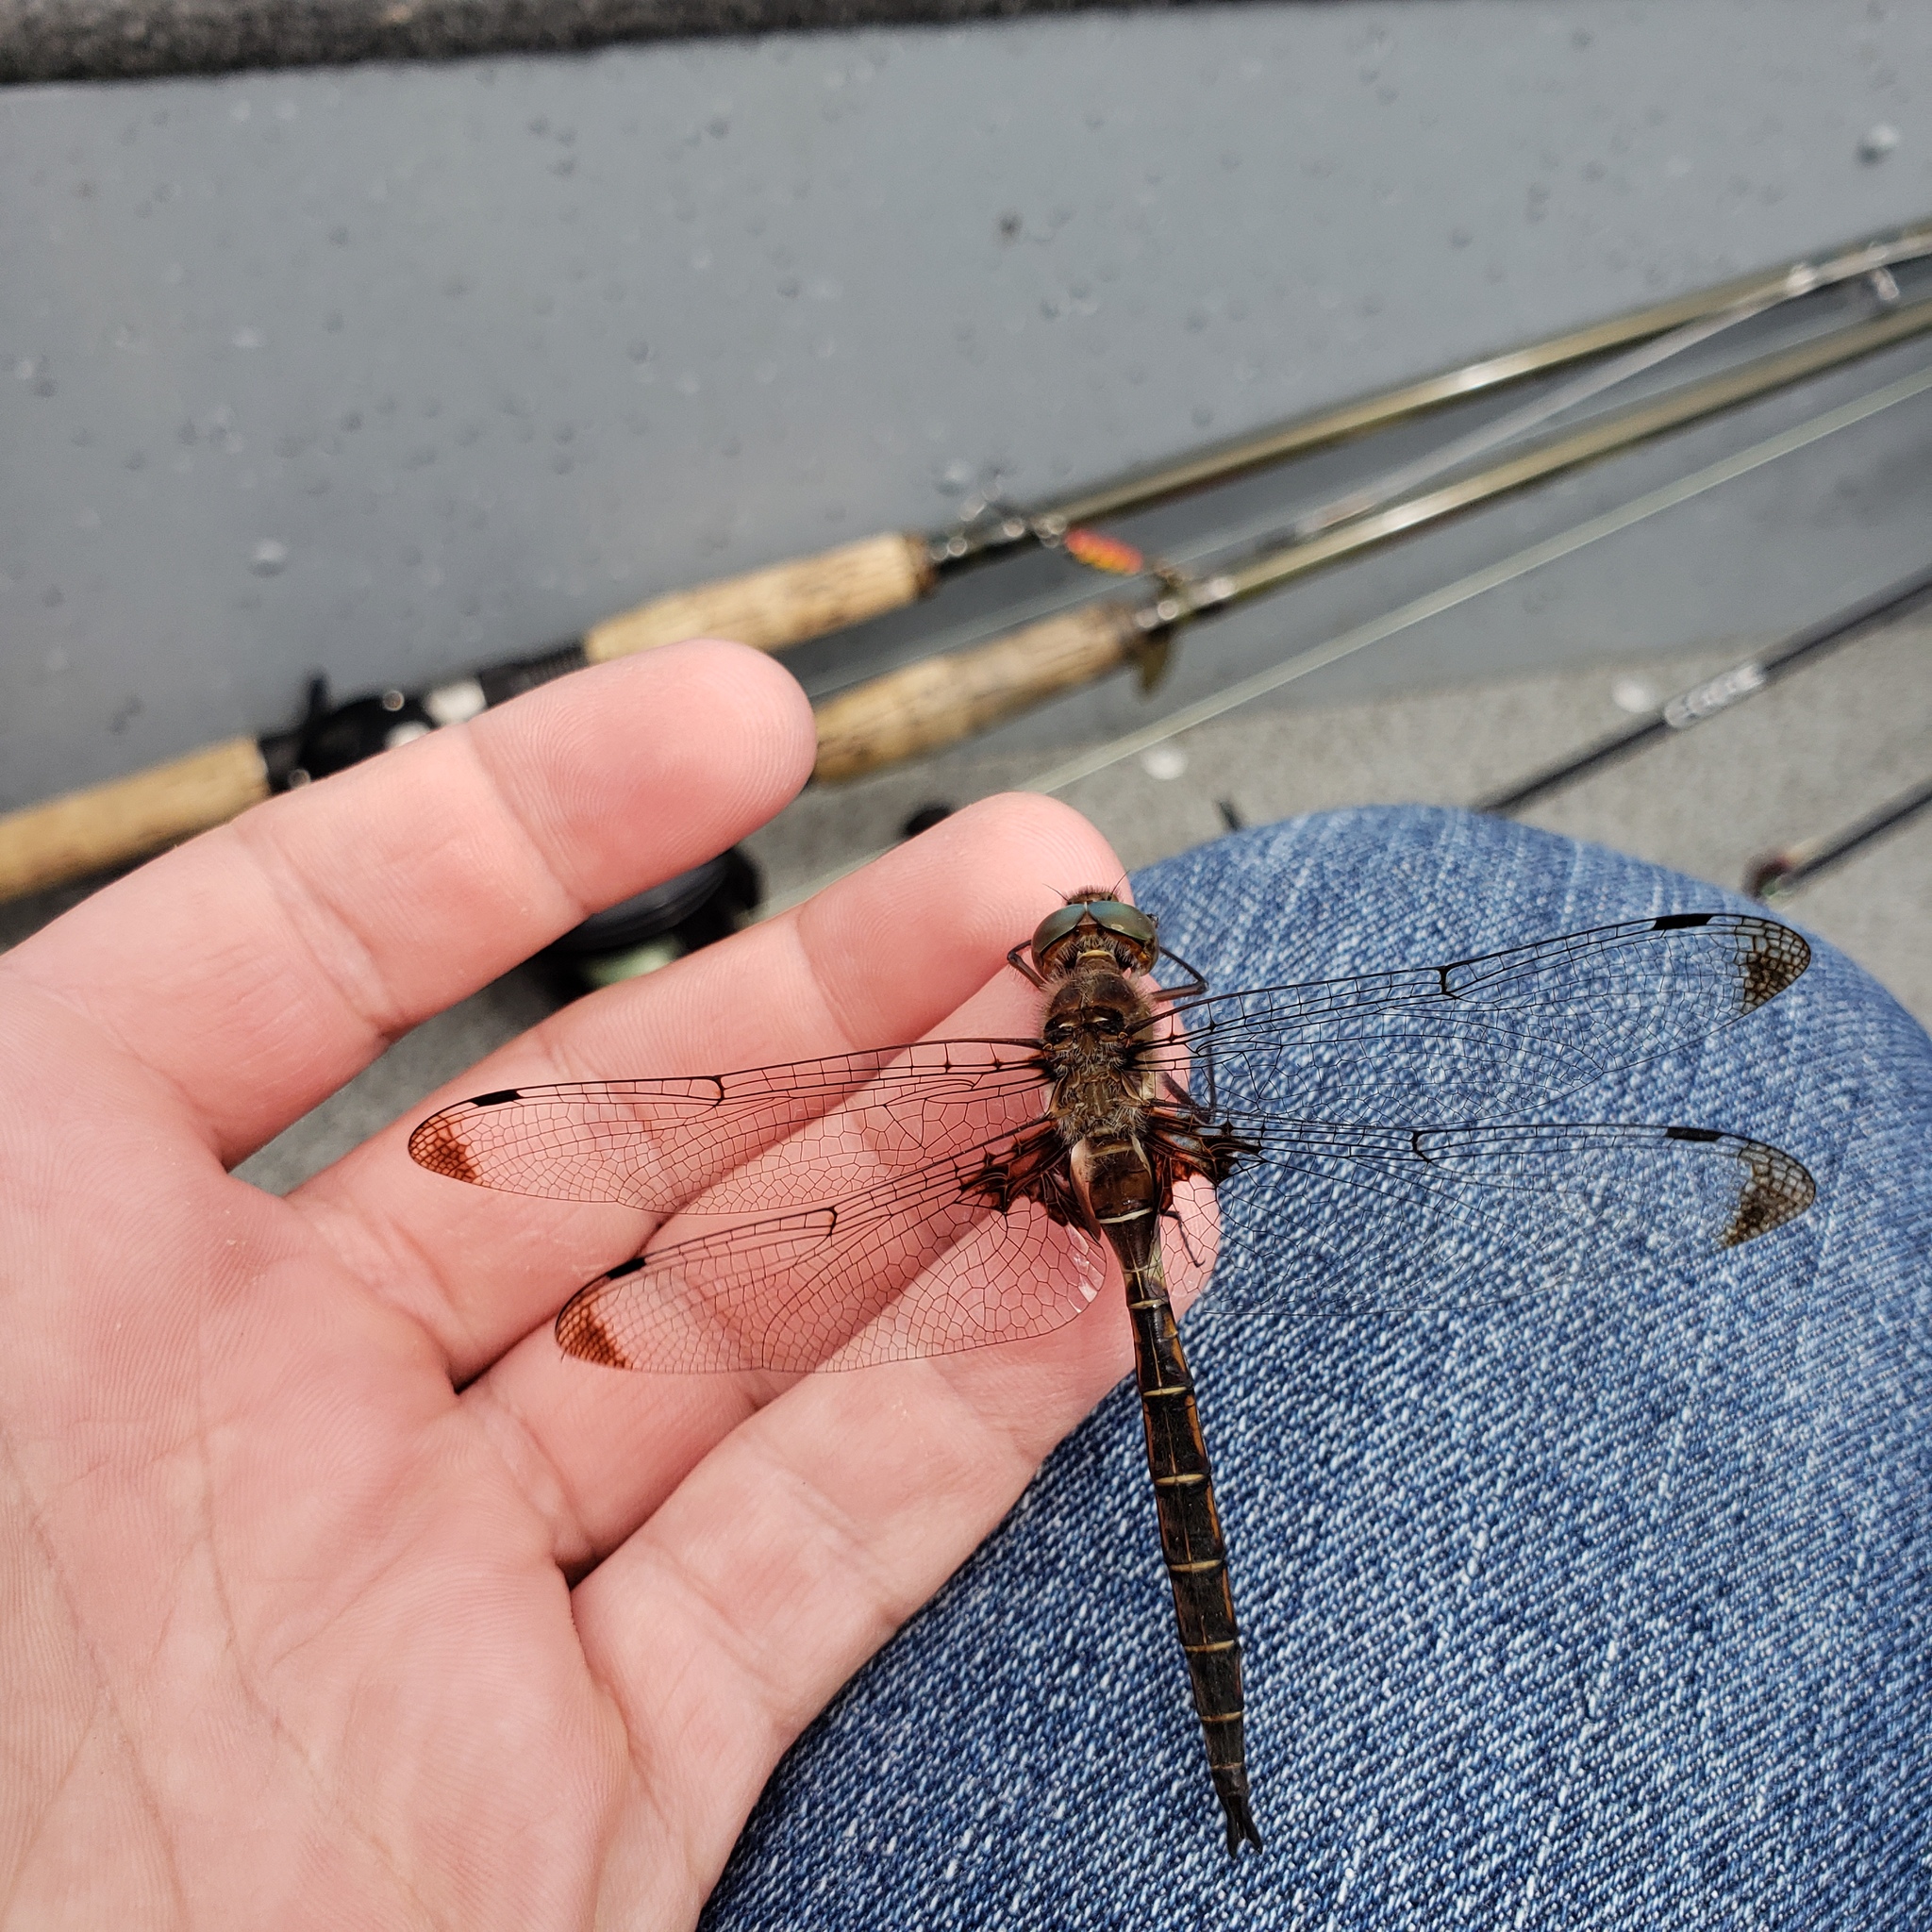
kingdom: Animalia
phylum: Arthropoda
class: Insecta
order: Odonata
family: Corduliidae
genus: Epitheca
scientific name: Epitheca princeps
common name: Prince baskettail
